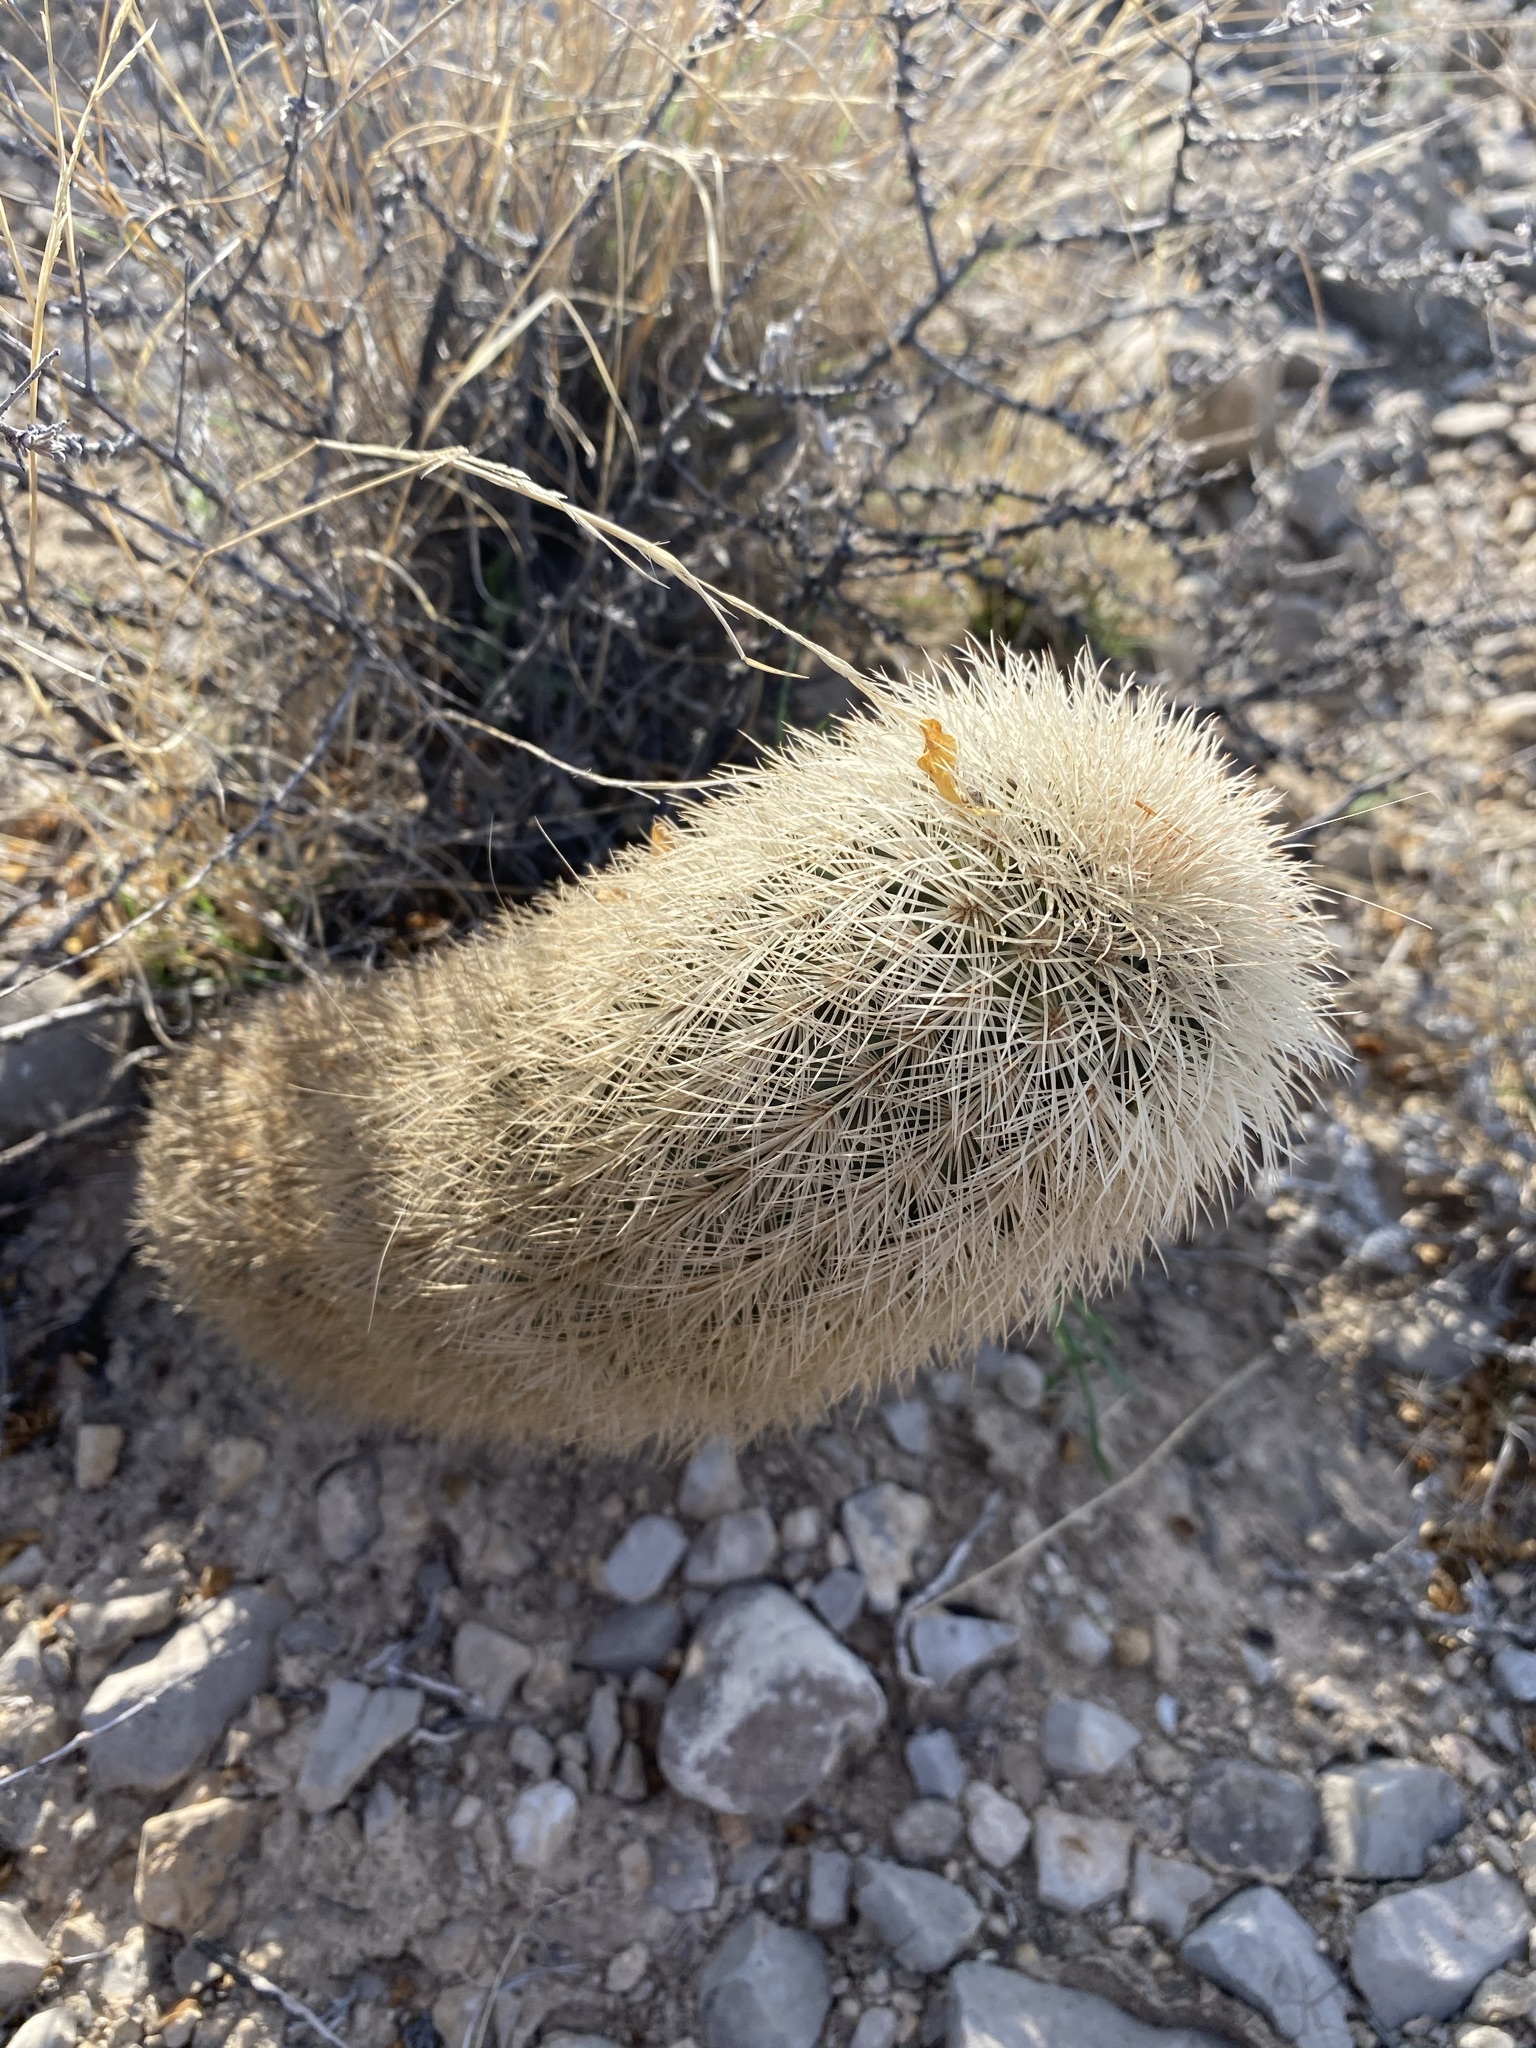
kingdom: Plantae
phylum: Tracheophyta
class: Magnoliopsida
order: Caryophyllales
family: Cactaceae
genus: Echinocereus
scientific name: Echinocereus dasyacanthus
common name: Spiny hedgehog cactus
